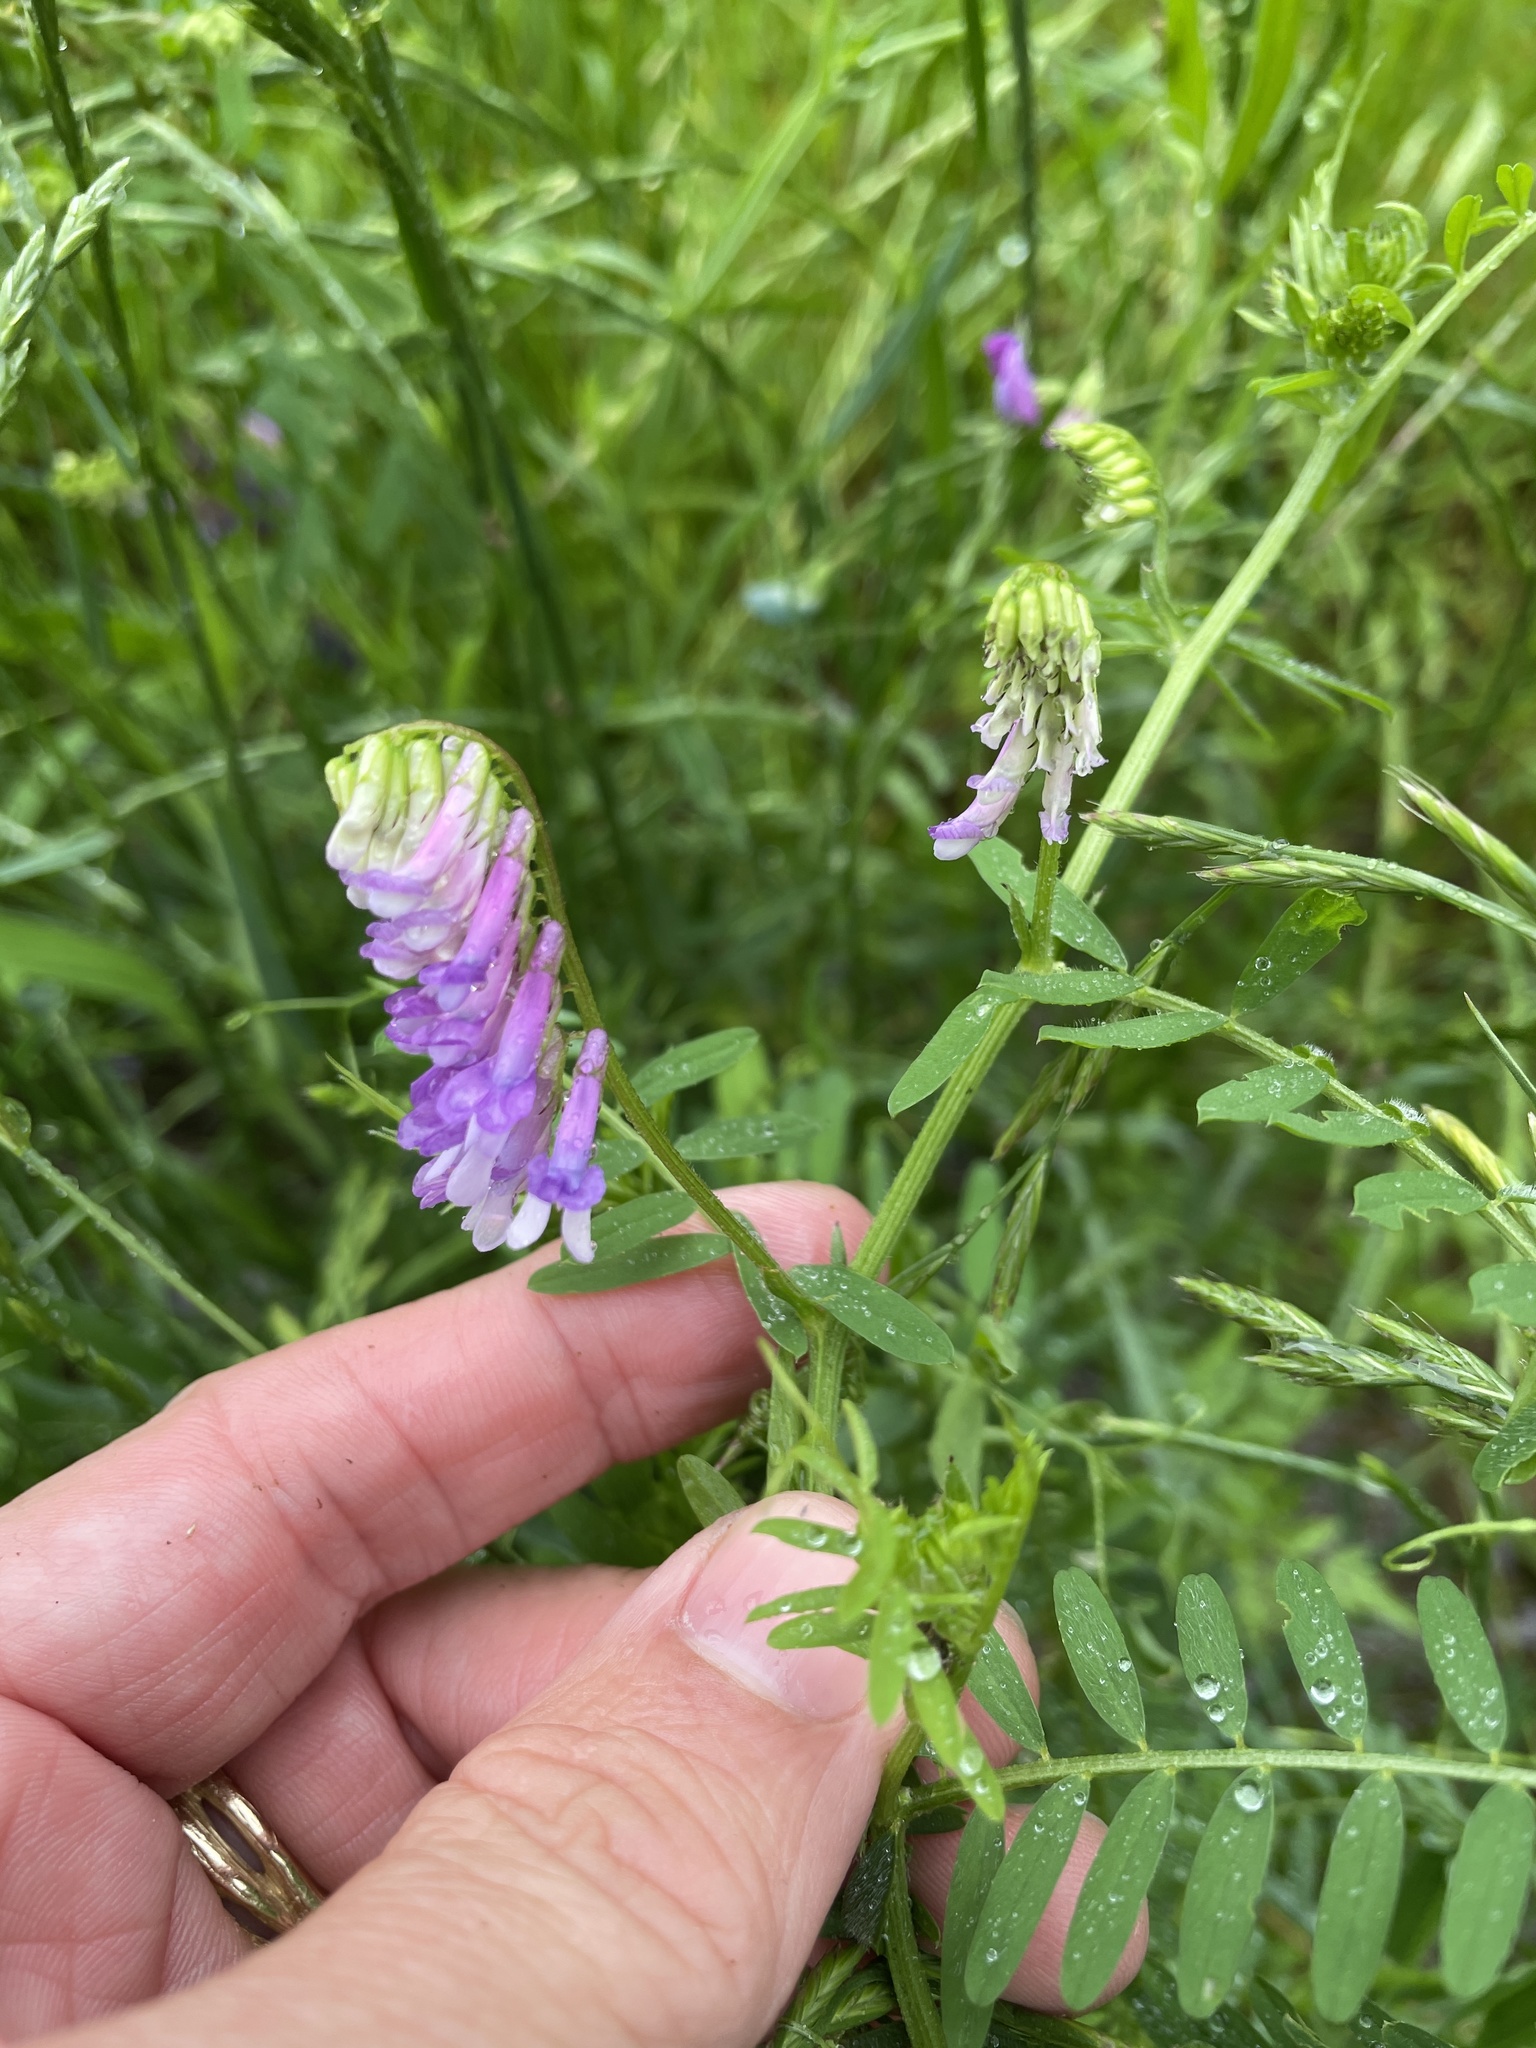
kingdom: Plantae
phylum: Tracheophyta
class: Magnoliopsida
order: Fabales
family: Fabaceae
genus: Vicia
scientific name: Vicia villosa
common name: Fodder vetch
